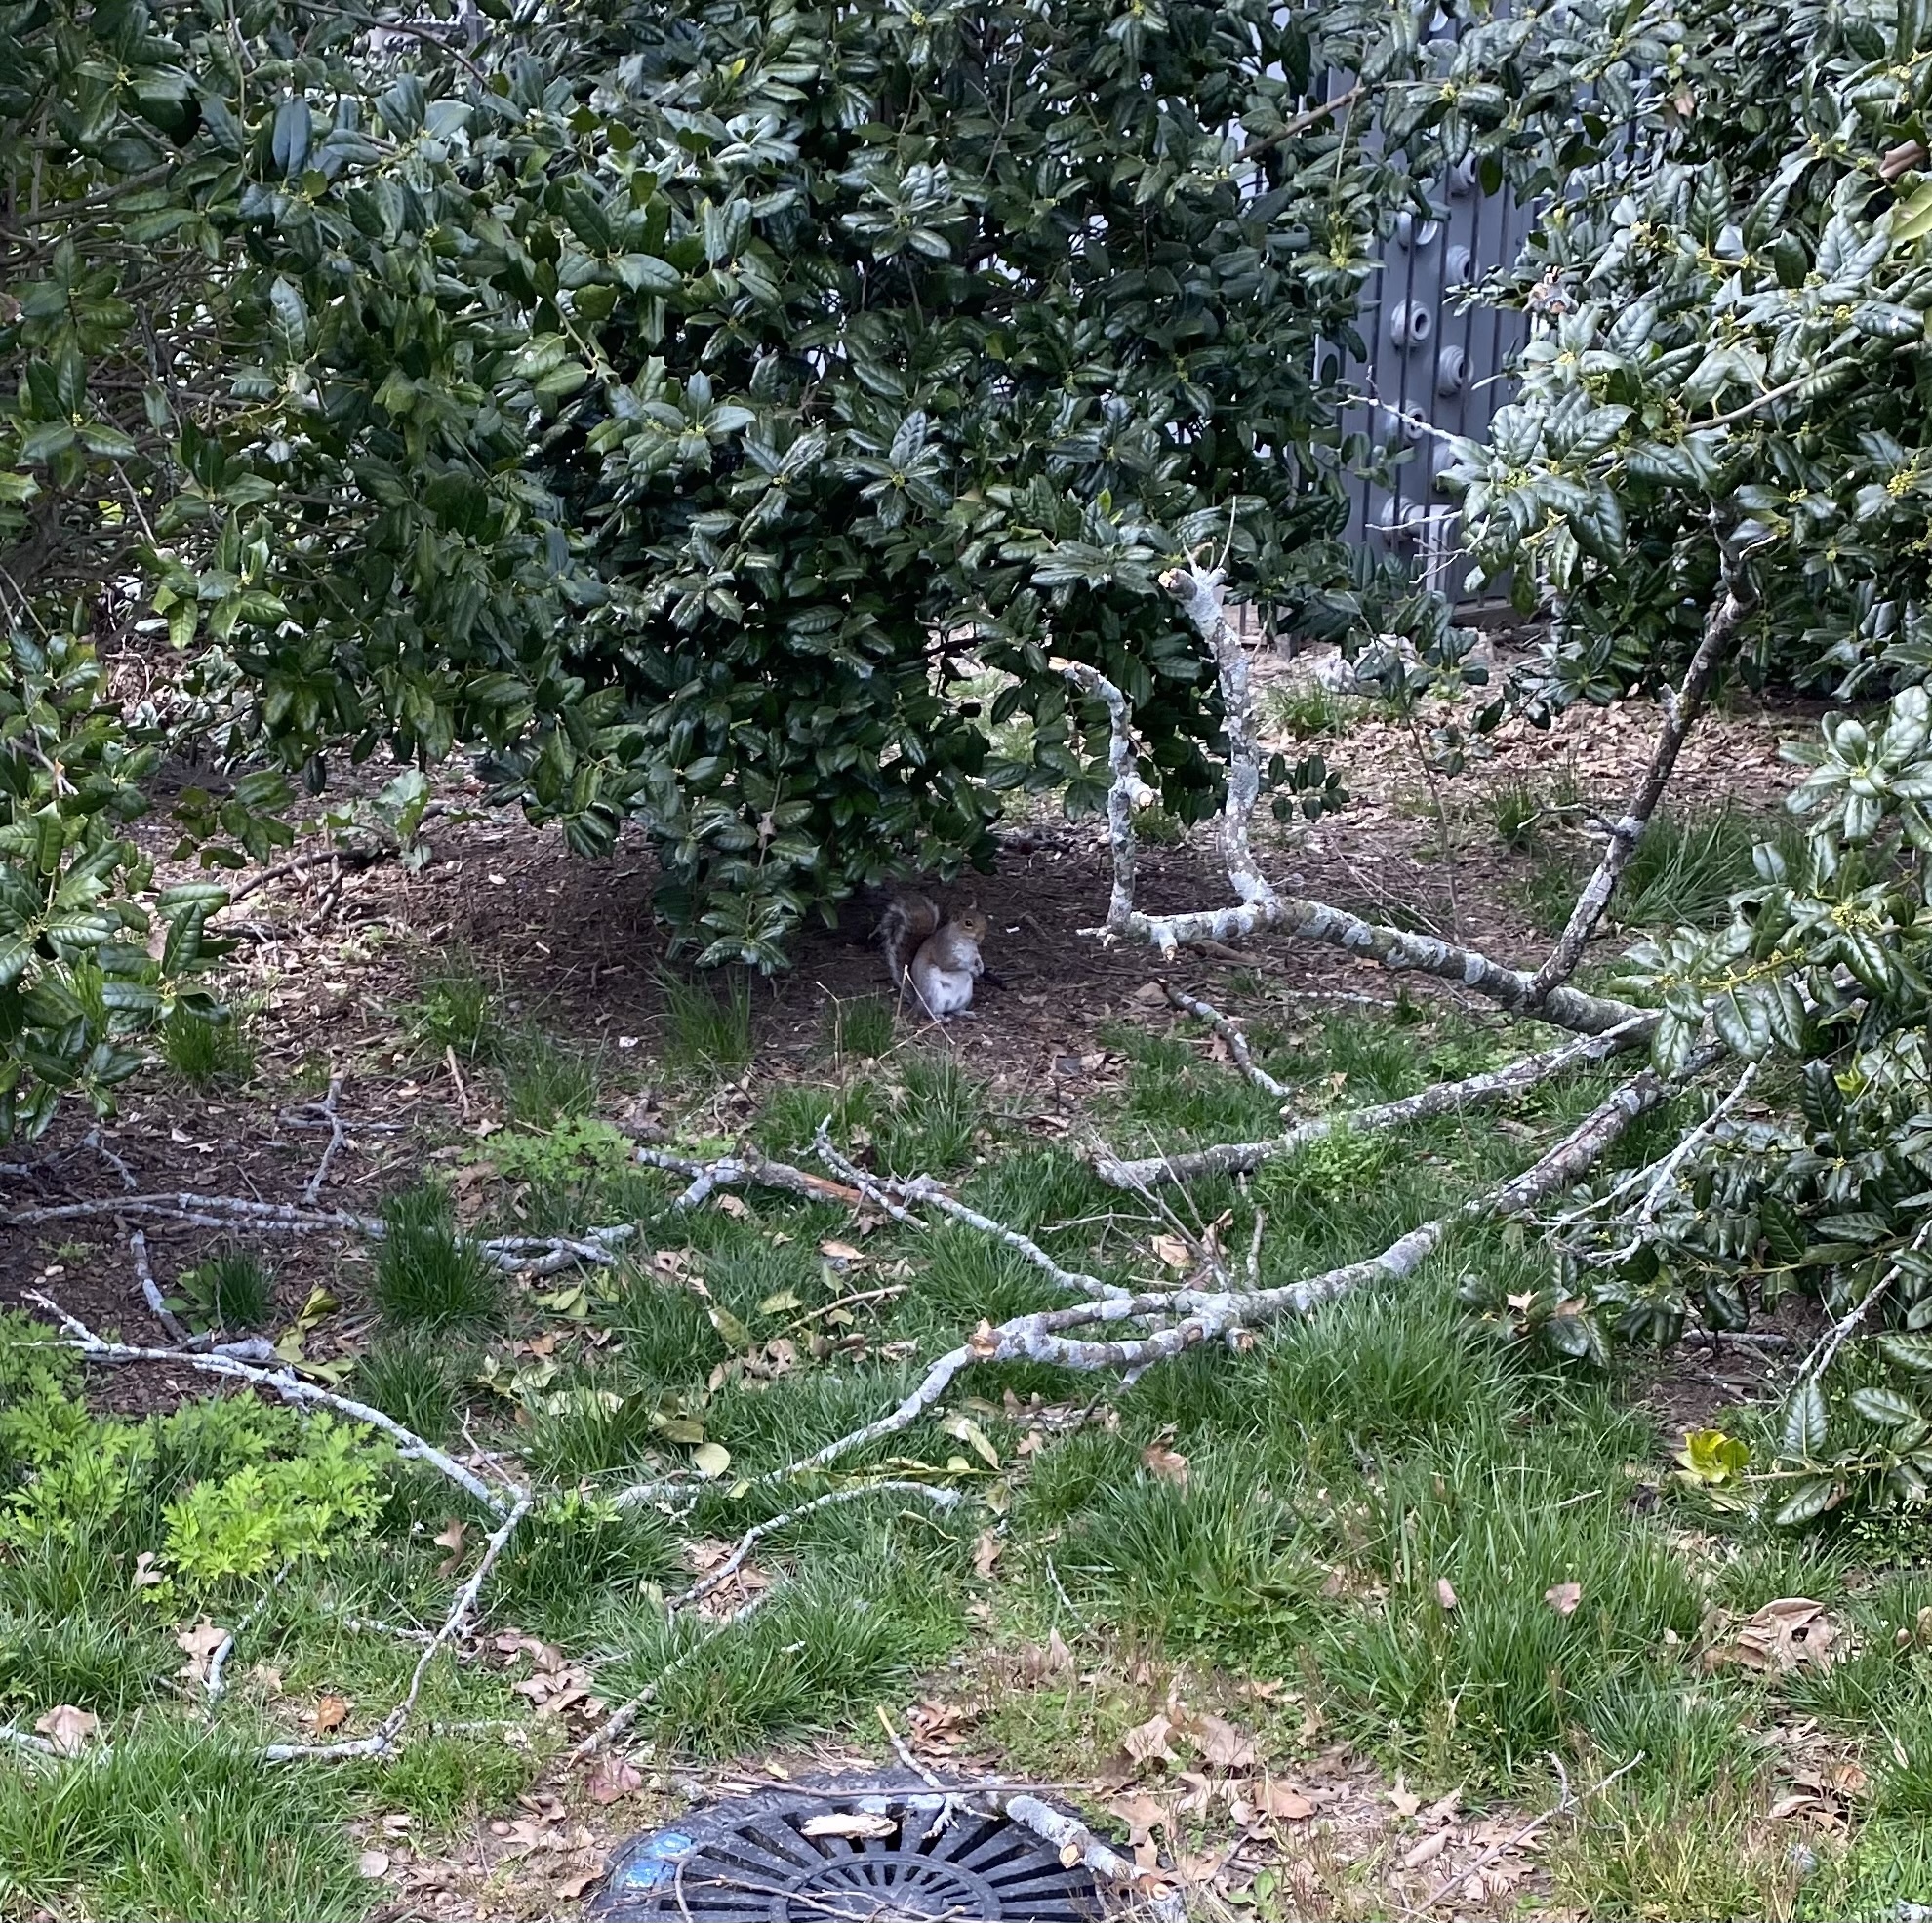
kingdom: Animalia
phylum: Chordata
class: Mammalia
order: Rodentia
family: Sciuridae
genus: Sciurus
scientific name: Sciurus carolinensis
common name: Eastern gray squirrel
